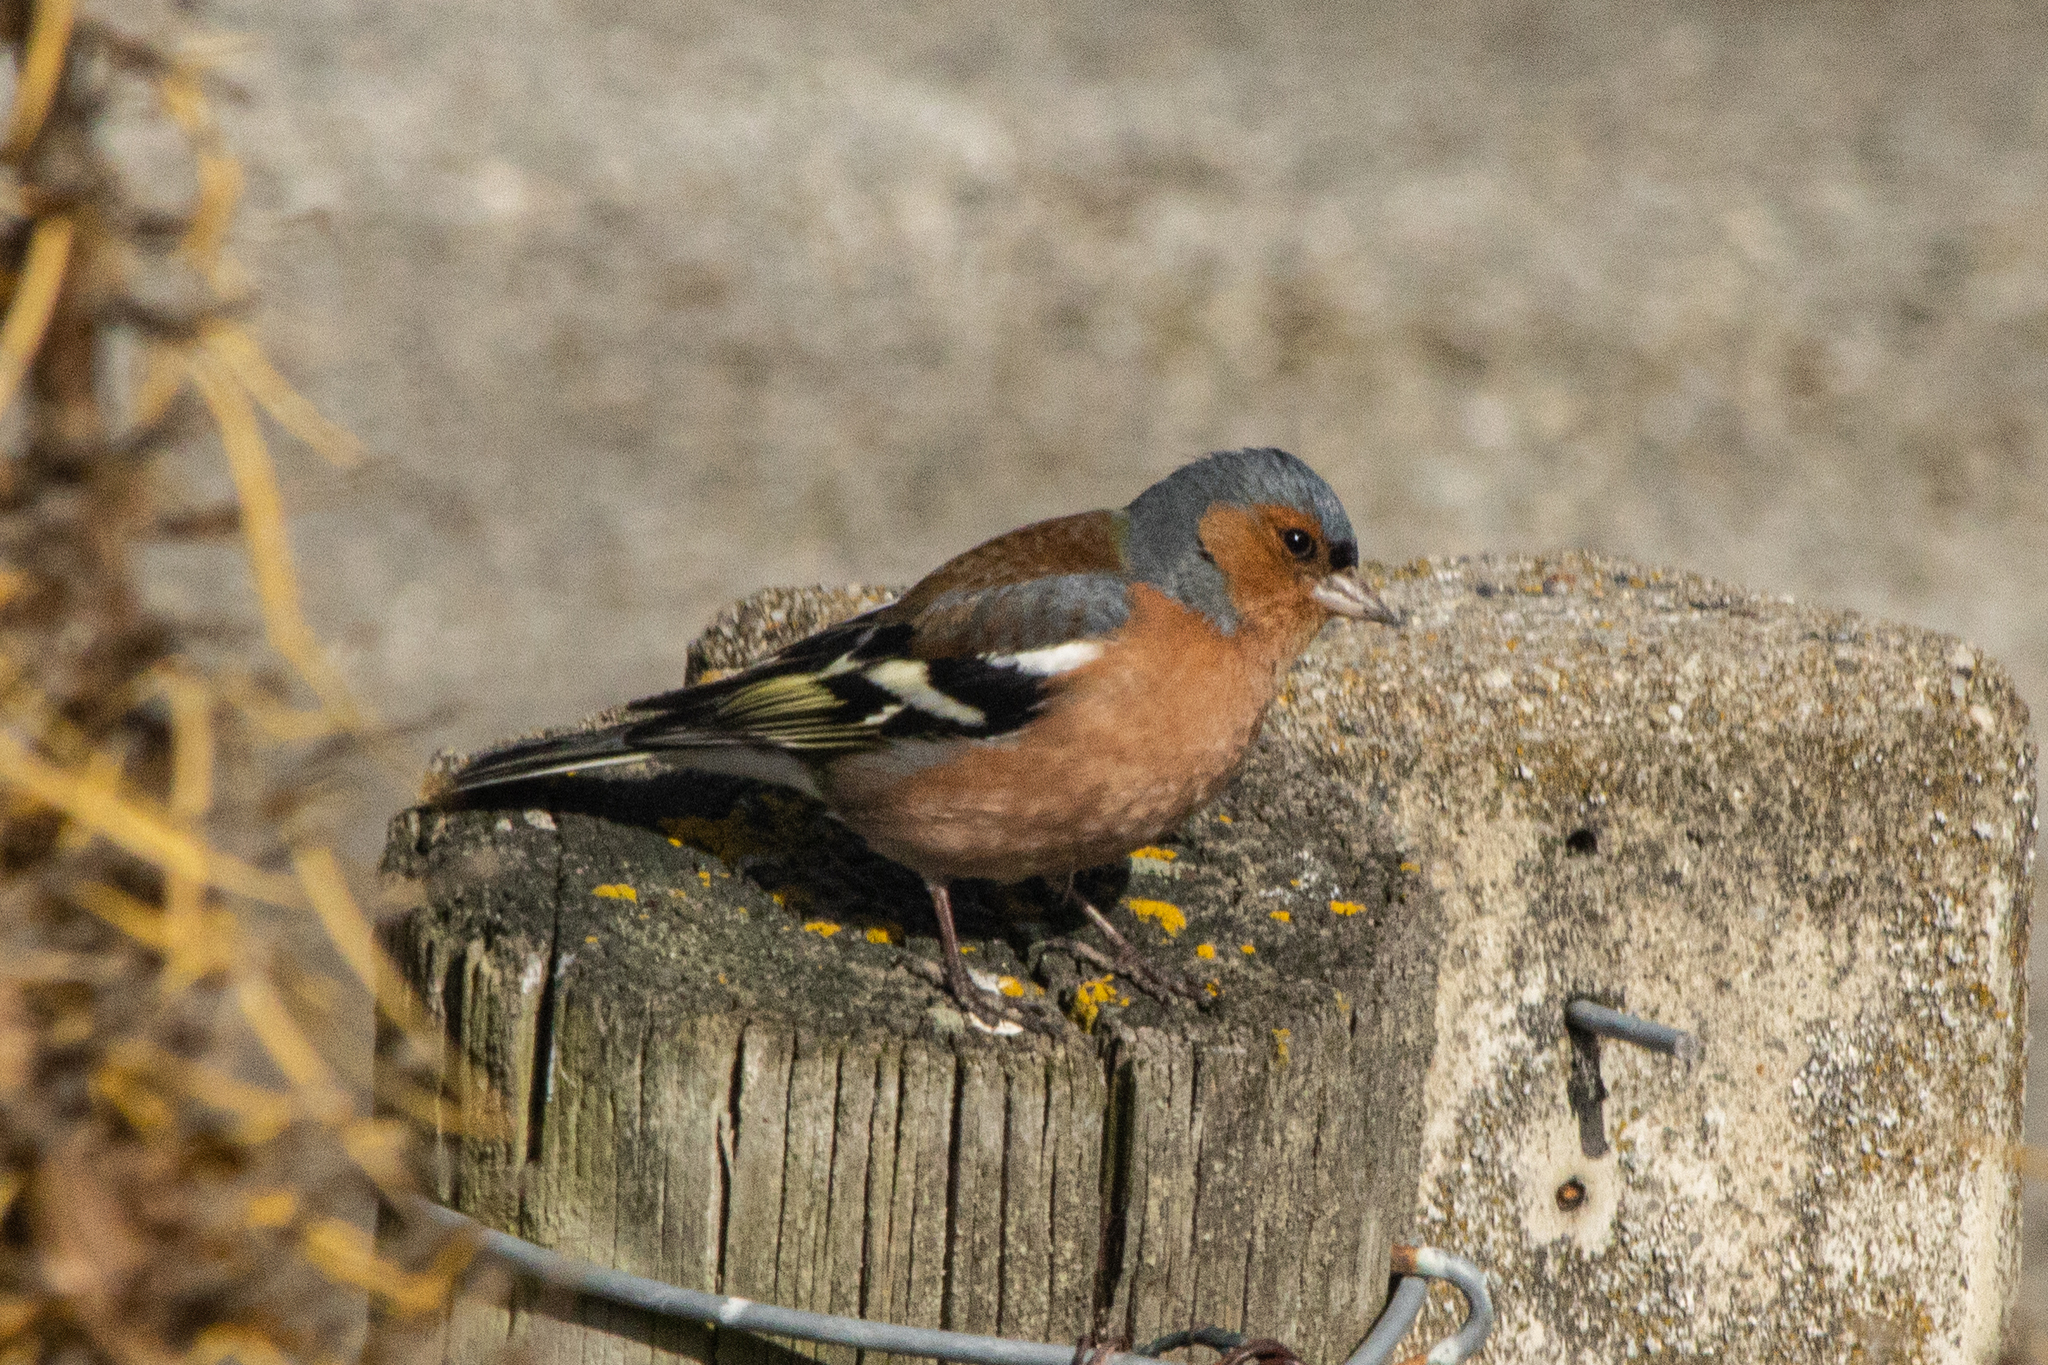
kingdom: Animalia
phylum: Chordata
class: Aves
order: Passeriformes
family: Fringillidae
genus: Fringilla
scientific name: Fringilla coelebs
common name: Common chaffinch
